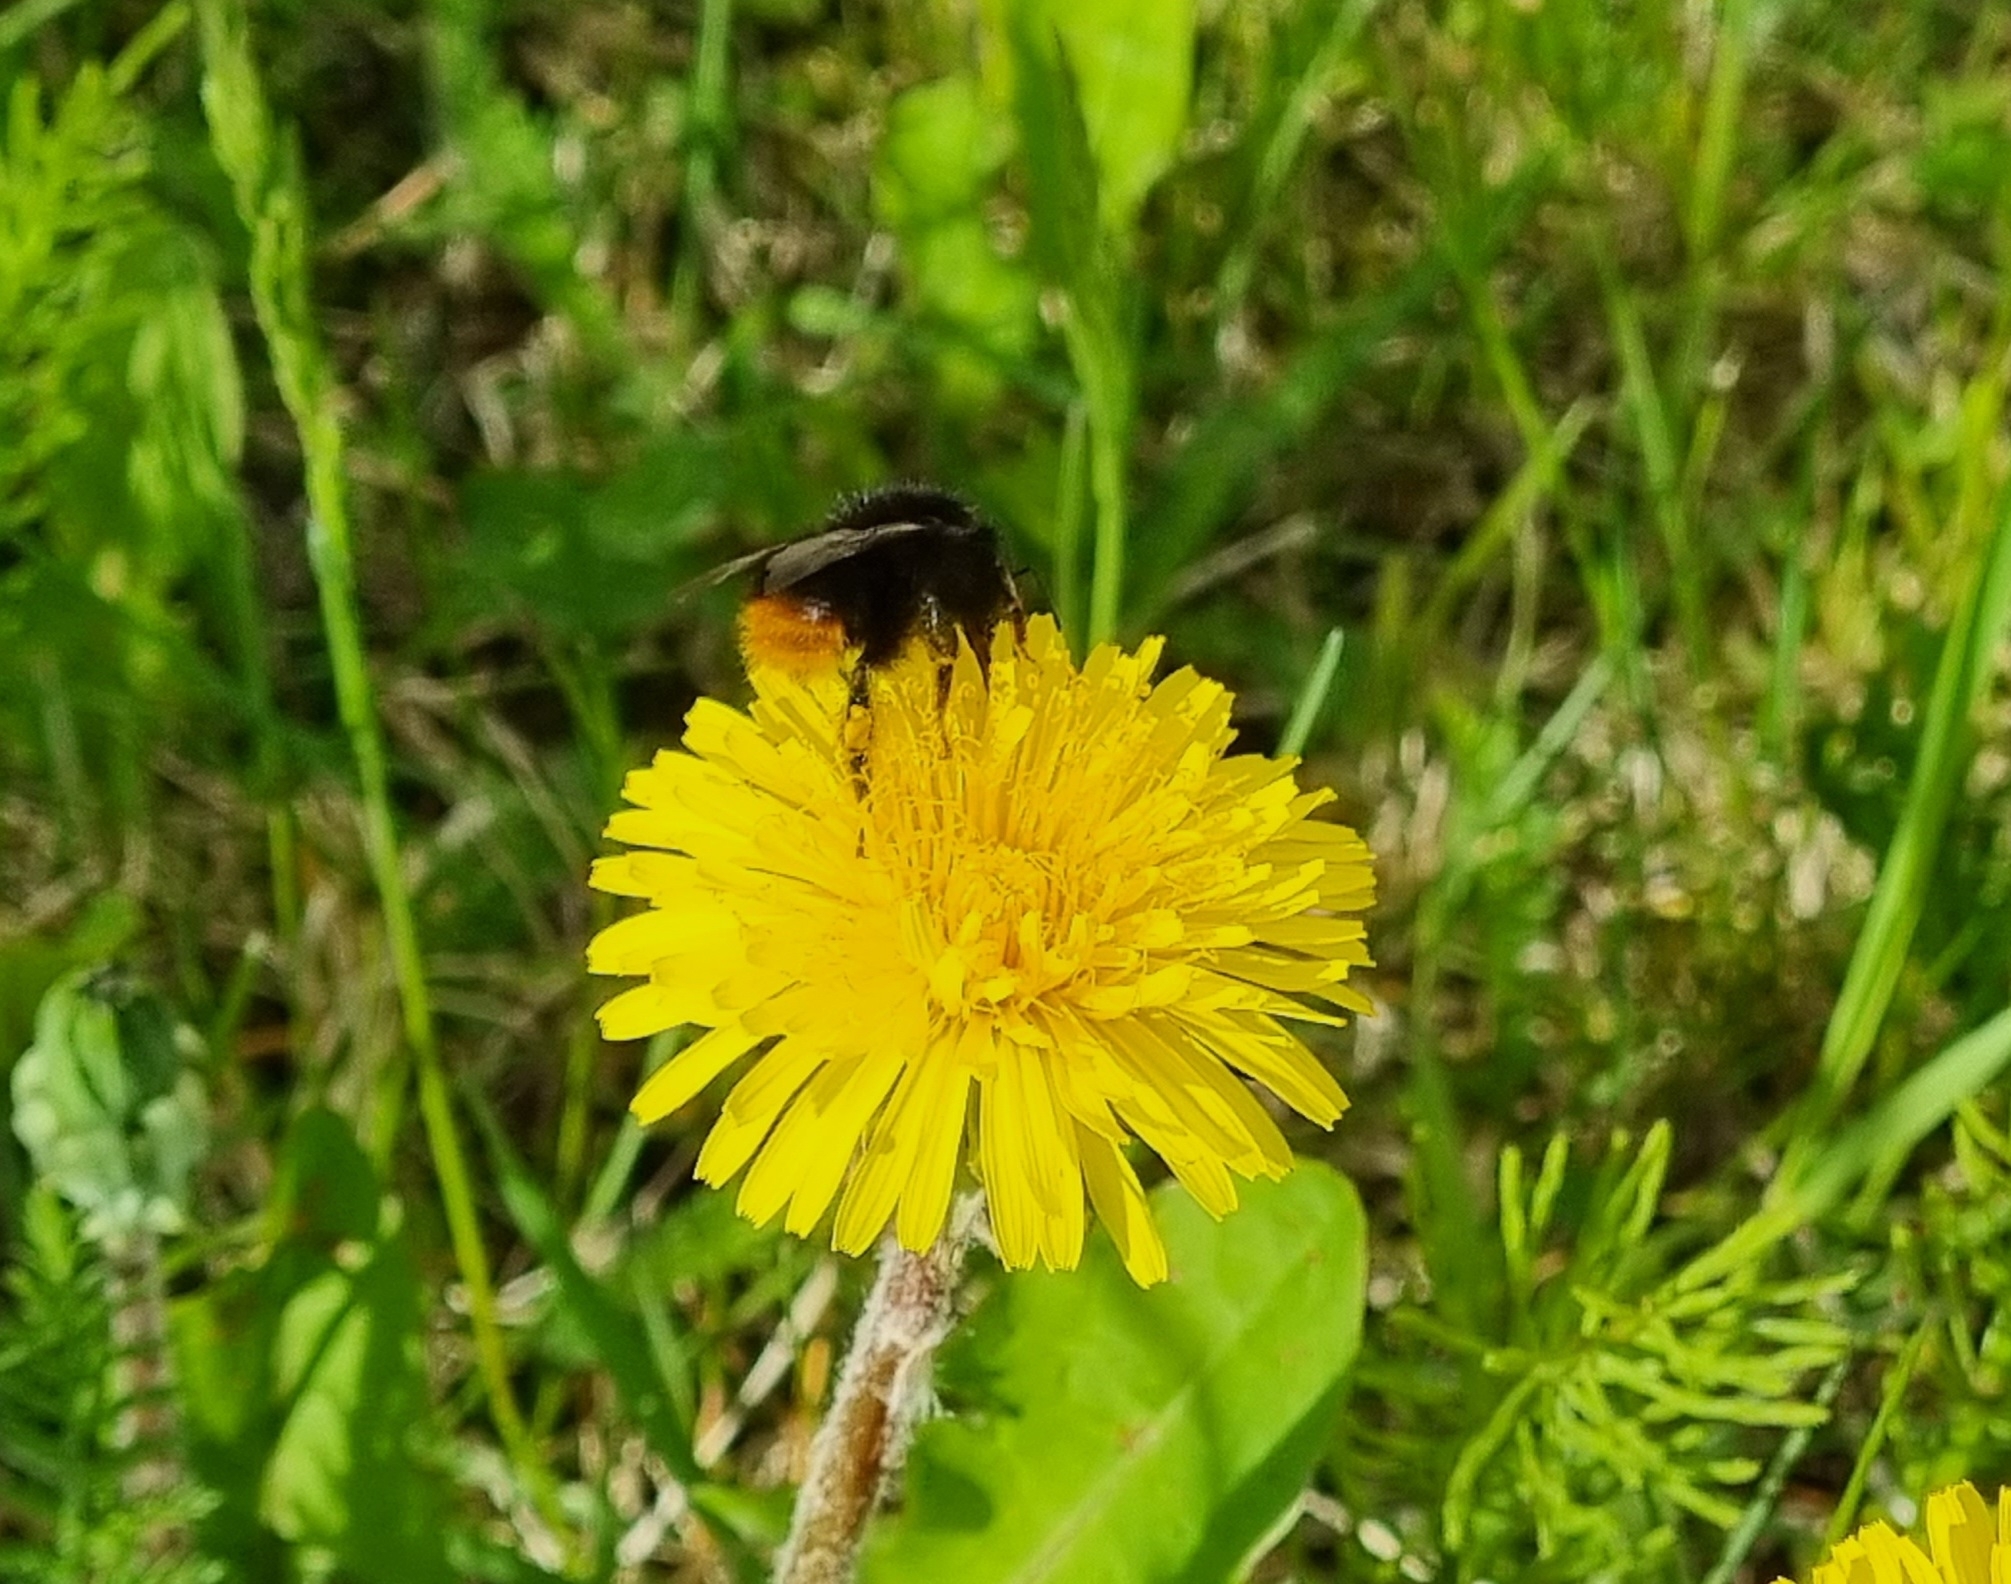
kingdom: Animalia
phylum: Arthropoda
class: Insecta
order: Hymenoptera
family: Apidae
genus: Bombus
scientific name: Bombus lapidarius
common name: Large red-tailed humble-bee
